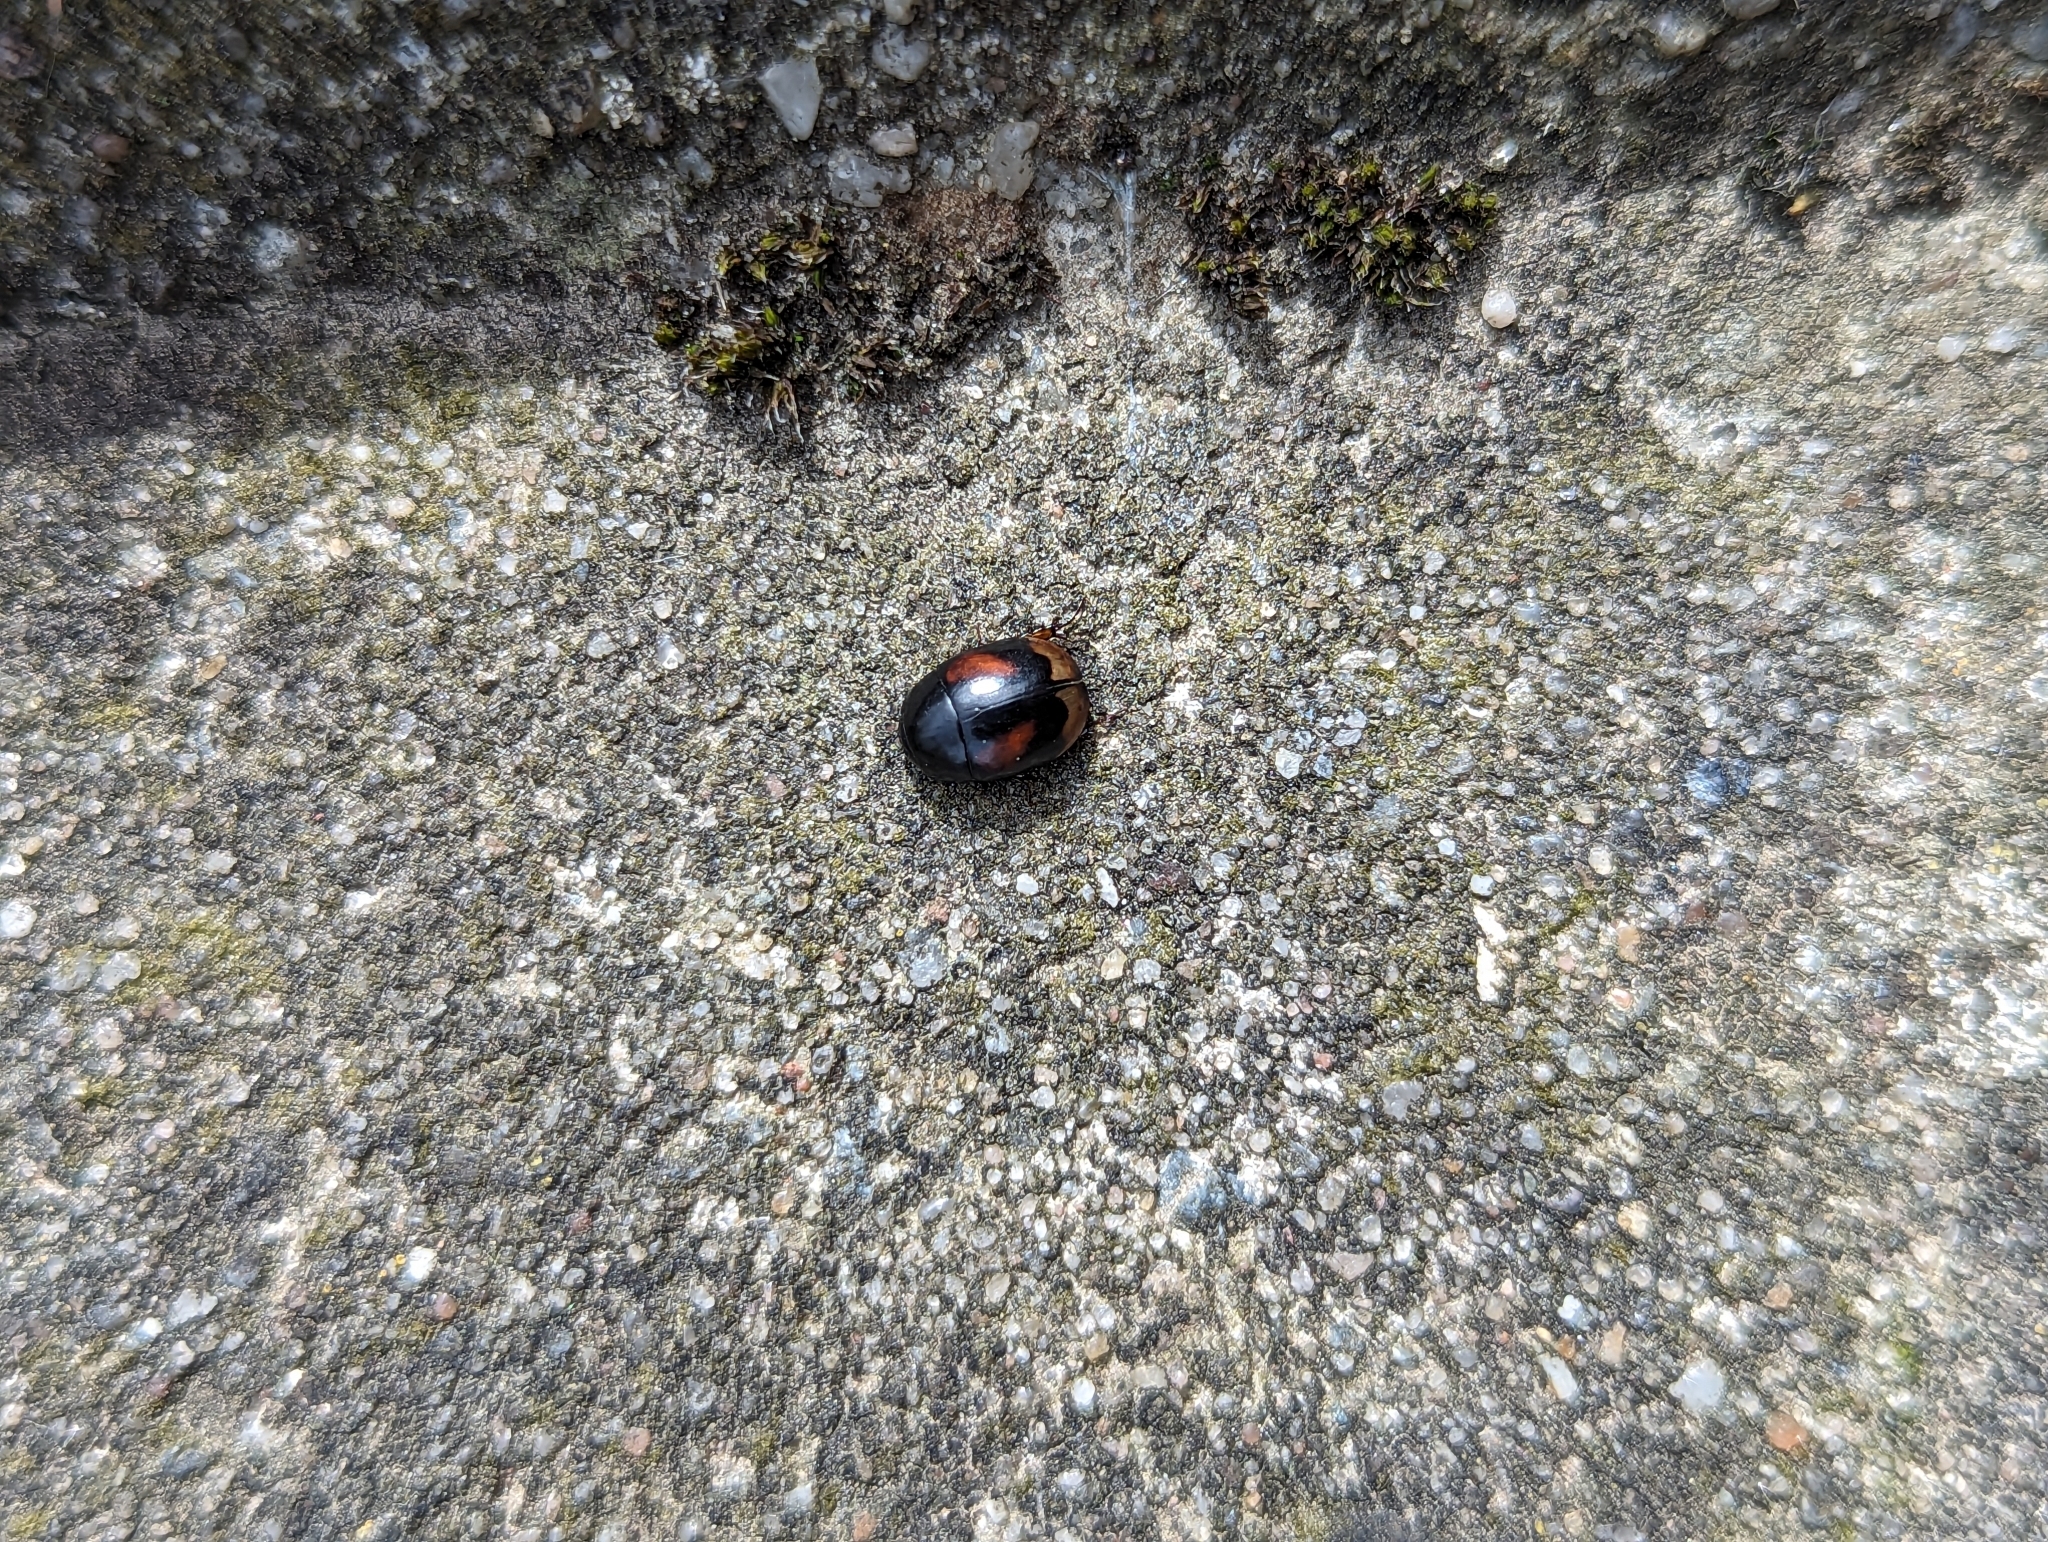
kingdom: Animalia
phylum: Arthropoda
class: Insecta
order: Coleoptera
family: Hydrophilidae
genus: Sphaeridium
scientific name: Sphaeridium scarabaeoides
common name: Water scavenger beetle
